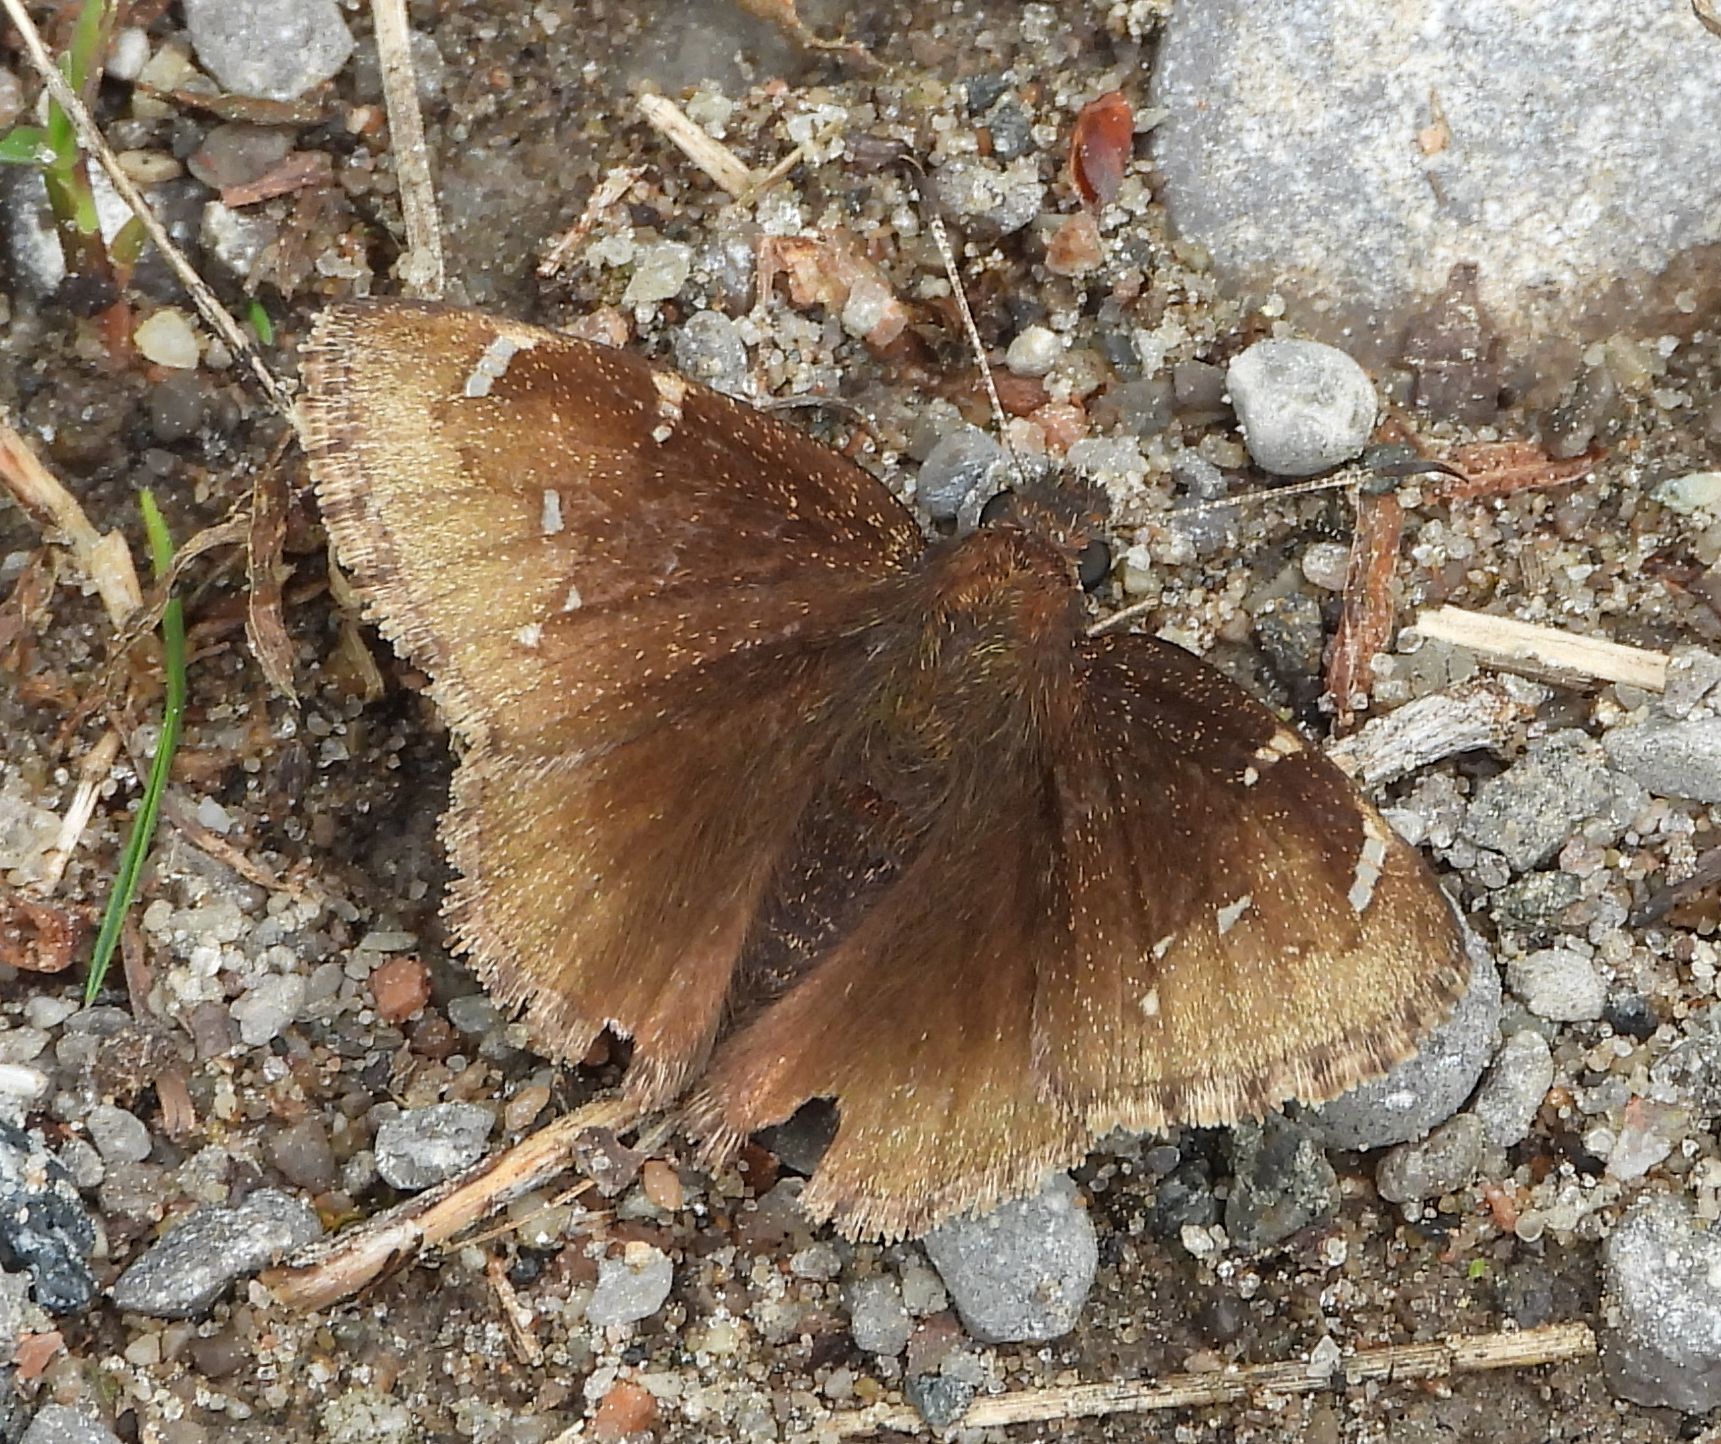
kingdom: Animalia
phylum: Arthropoda
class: Insecta
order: Lepidoptera
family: Hesperiidae
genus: Thorybes
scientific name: Thorybes pylades
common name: Northern cloudywing
